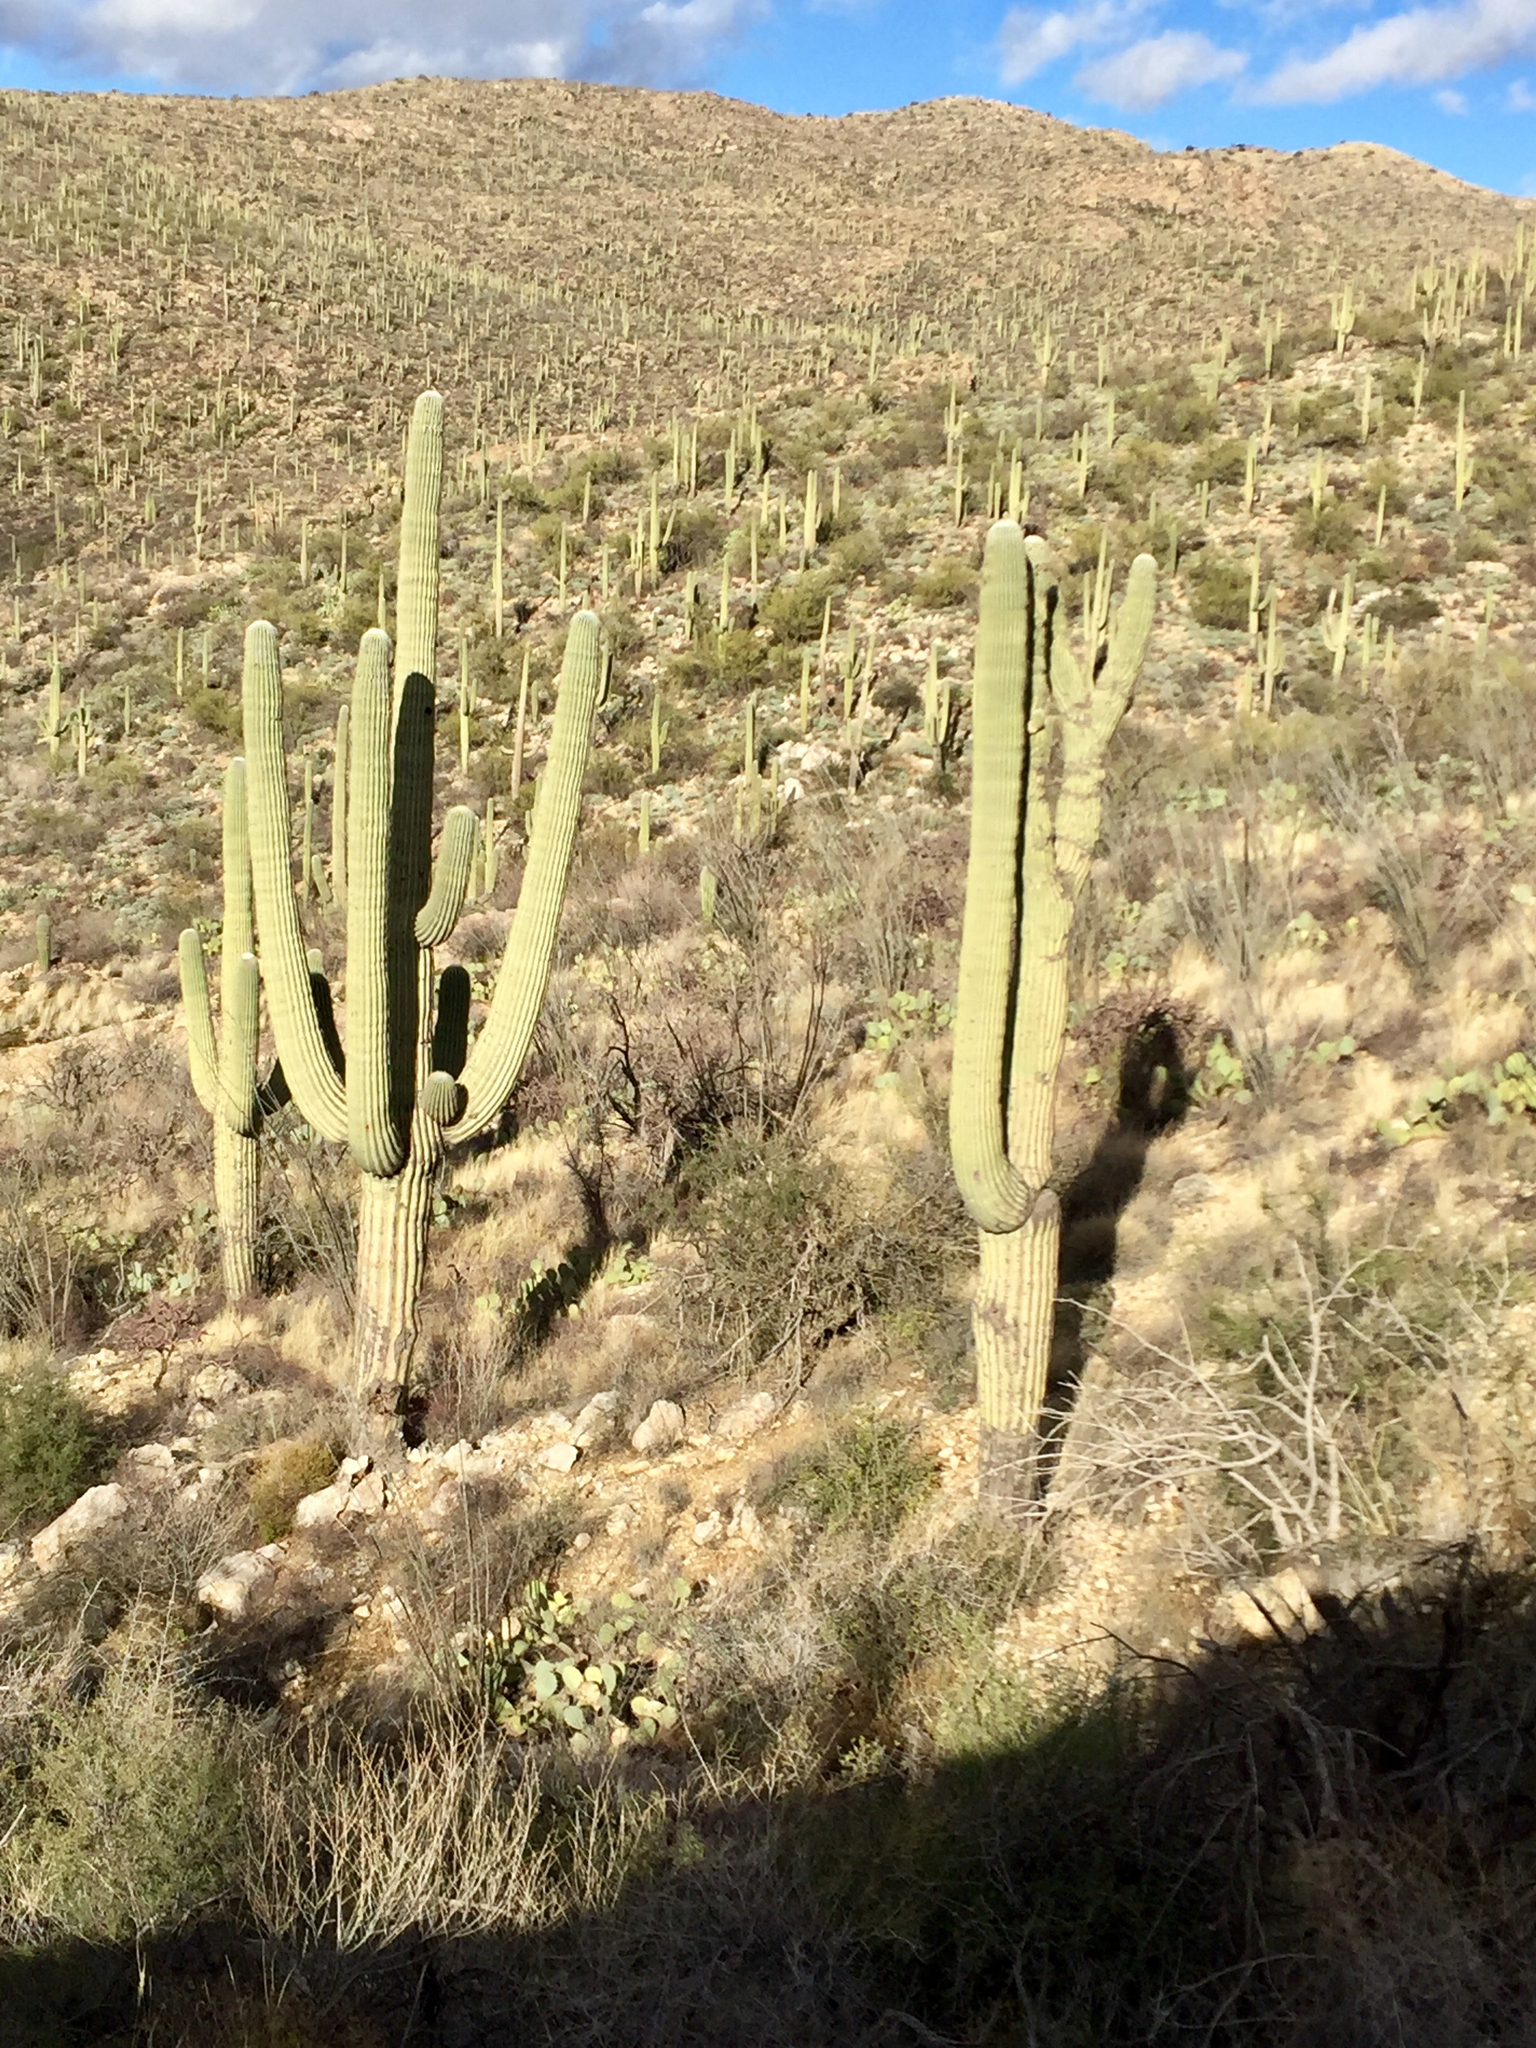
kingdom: Plantae
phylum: Tracheophyta
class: Magnoliopsida
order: Caryophyllales
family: Cactaceae
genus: Carnegiea
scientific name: Carnegiea gigantea
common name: Saguaro
